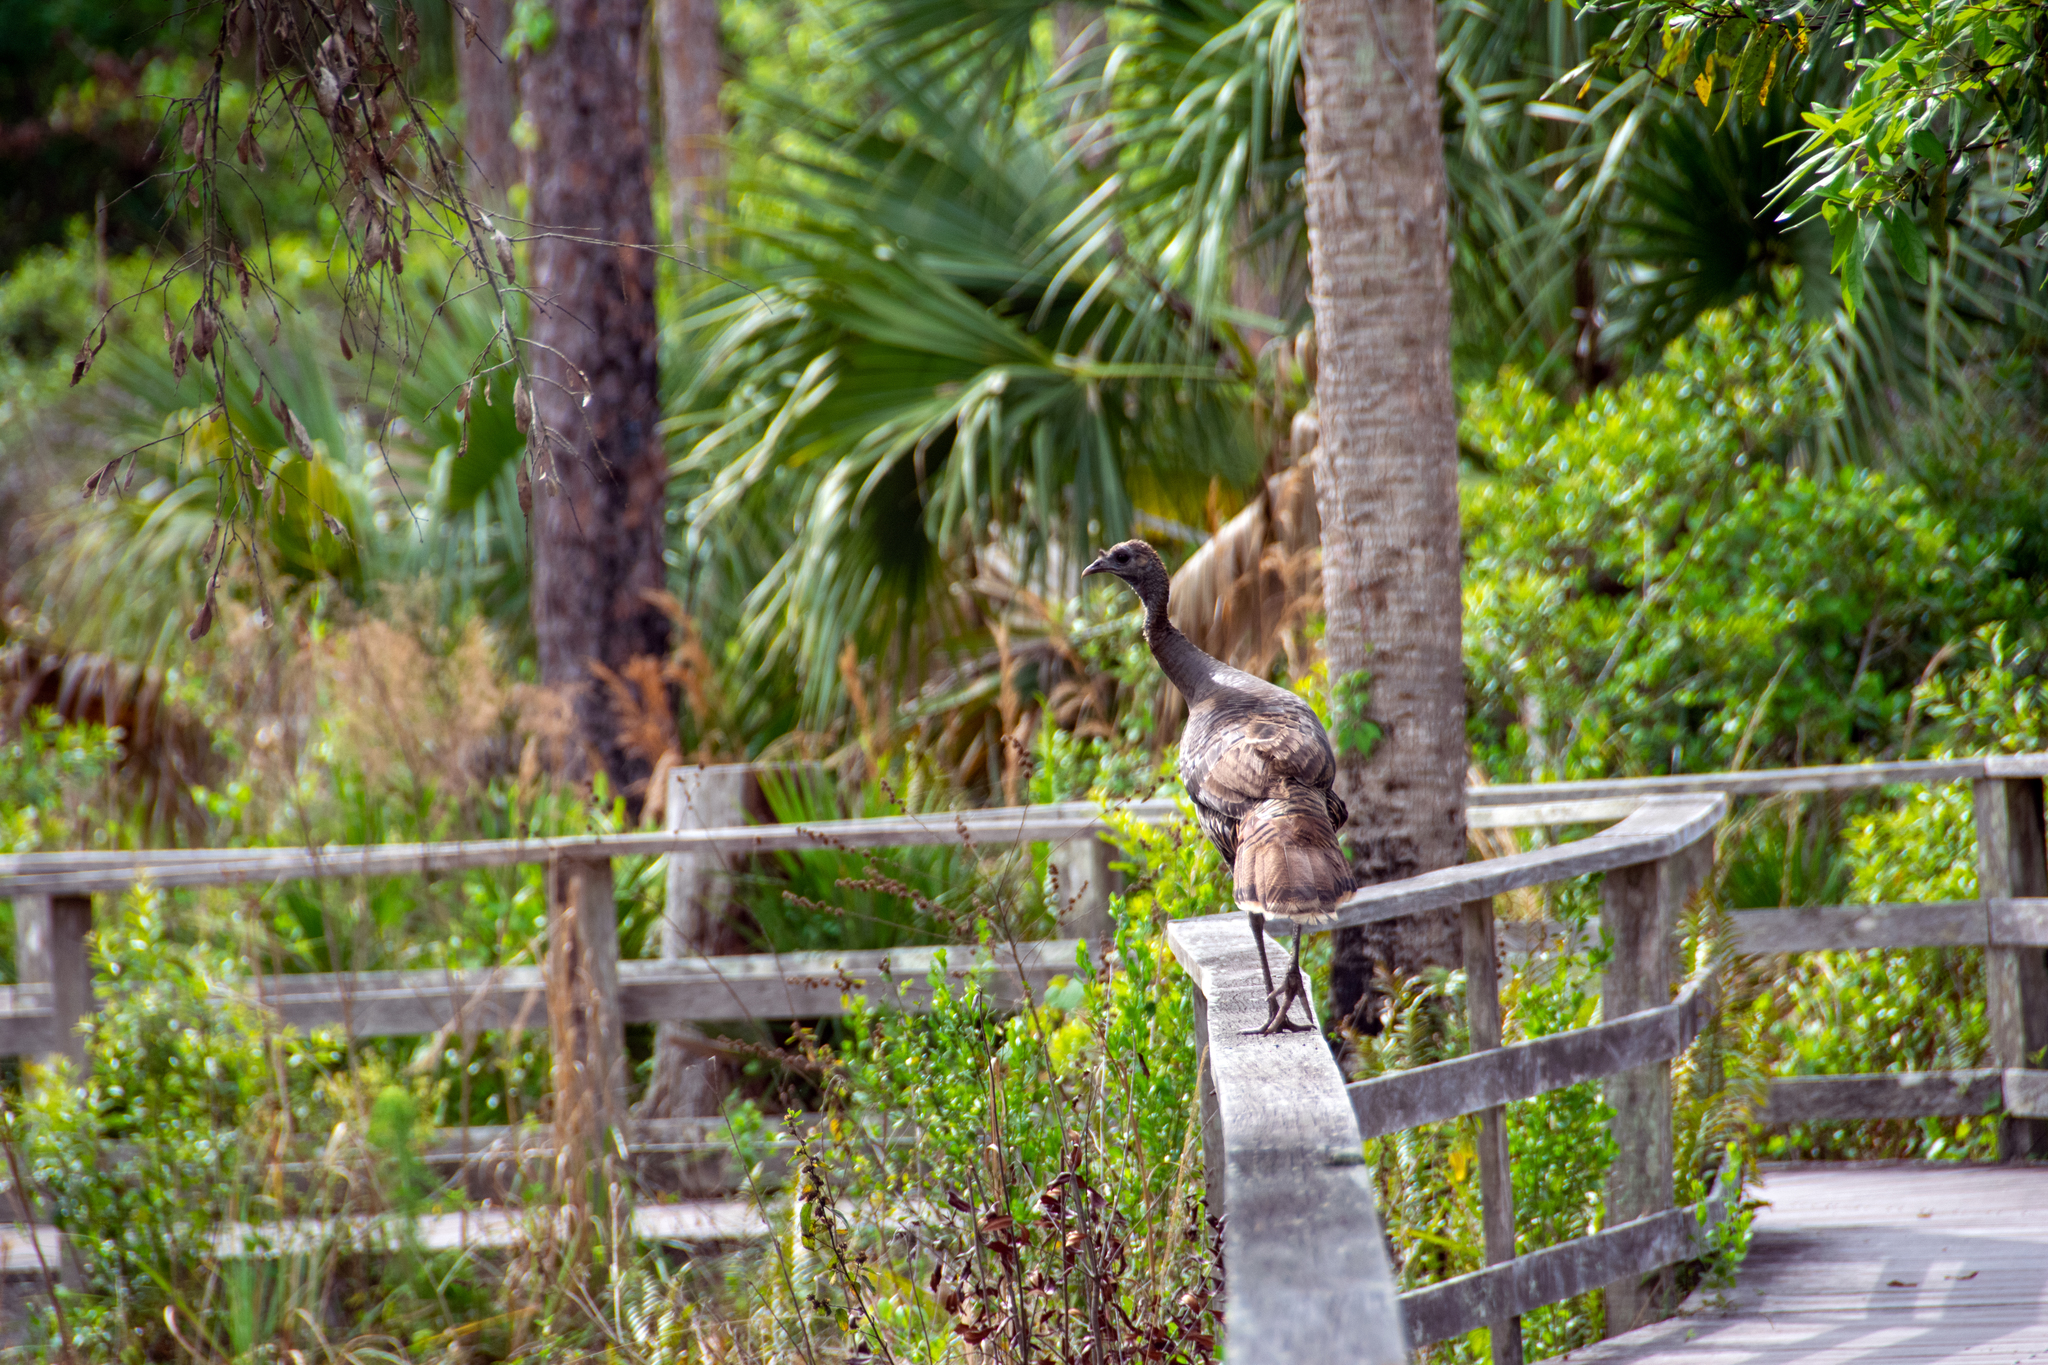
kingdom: Animalia
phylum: Chordata
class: Aves
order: Galliformes
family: Phasianidae
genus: Meleagris
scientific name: Meleagris gallopavo
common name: Wild turkey
